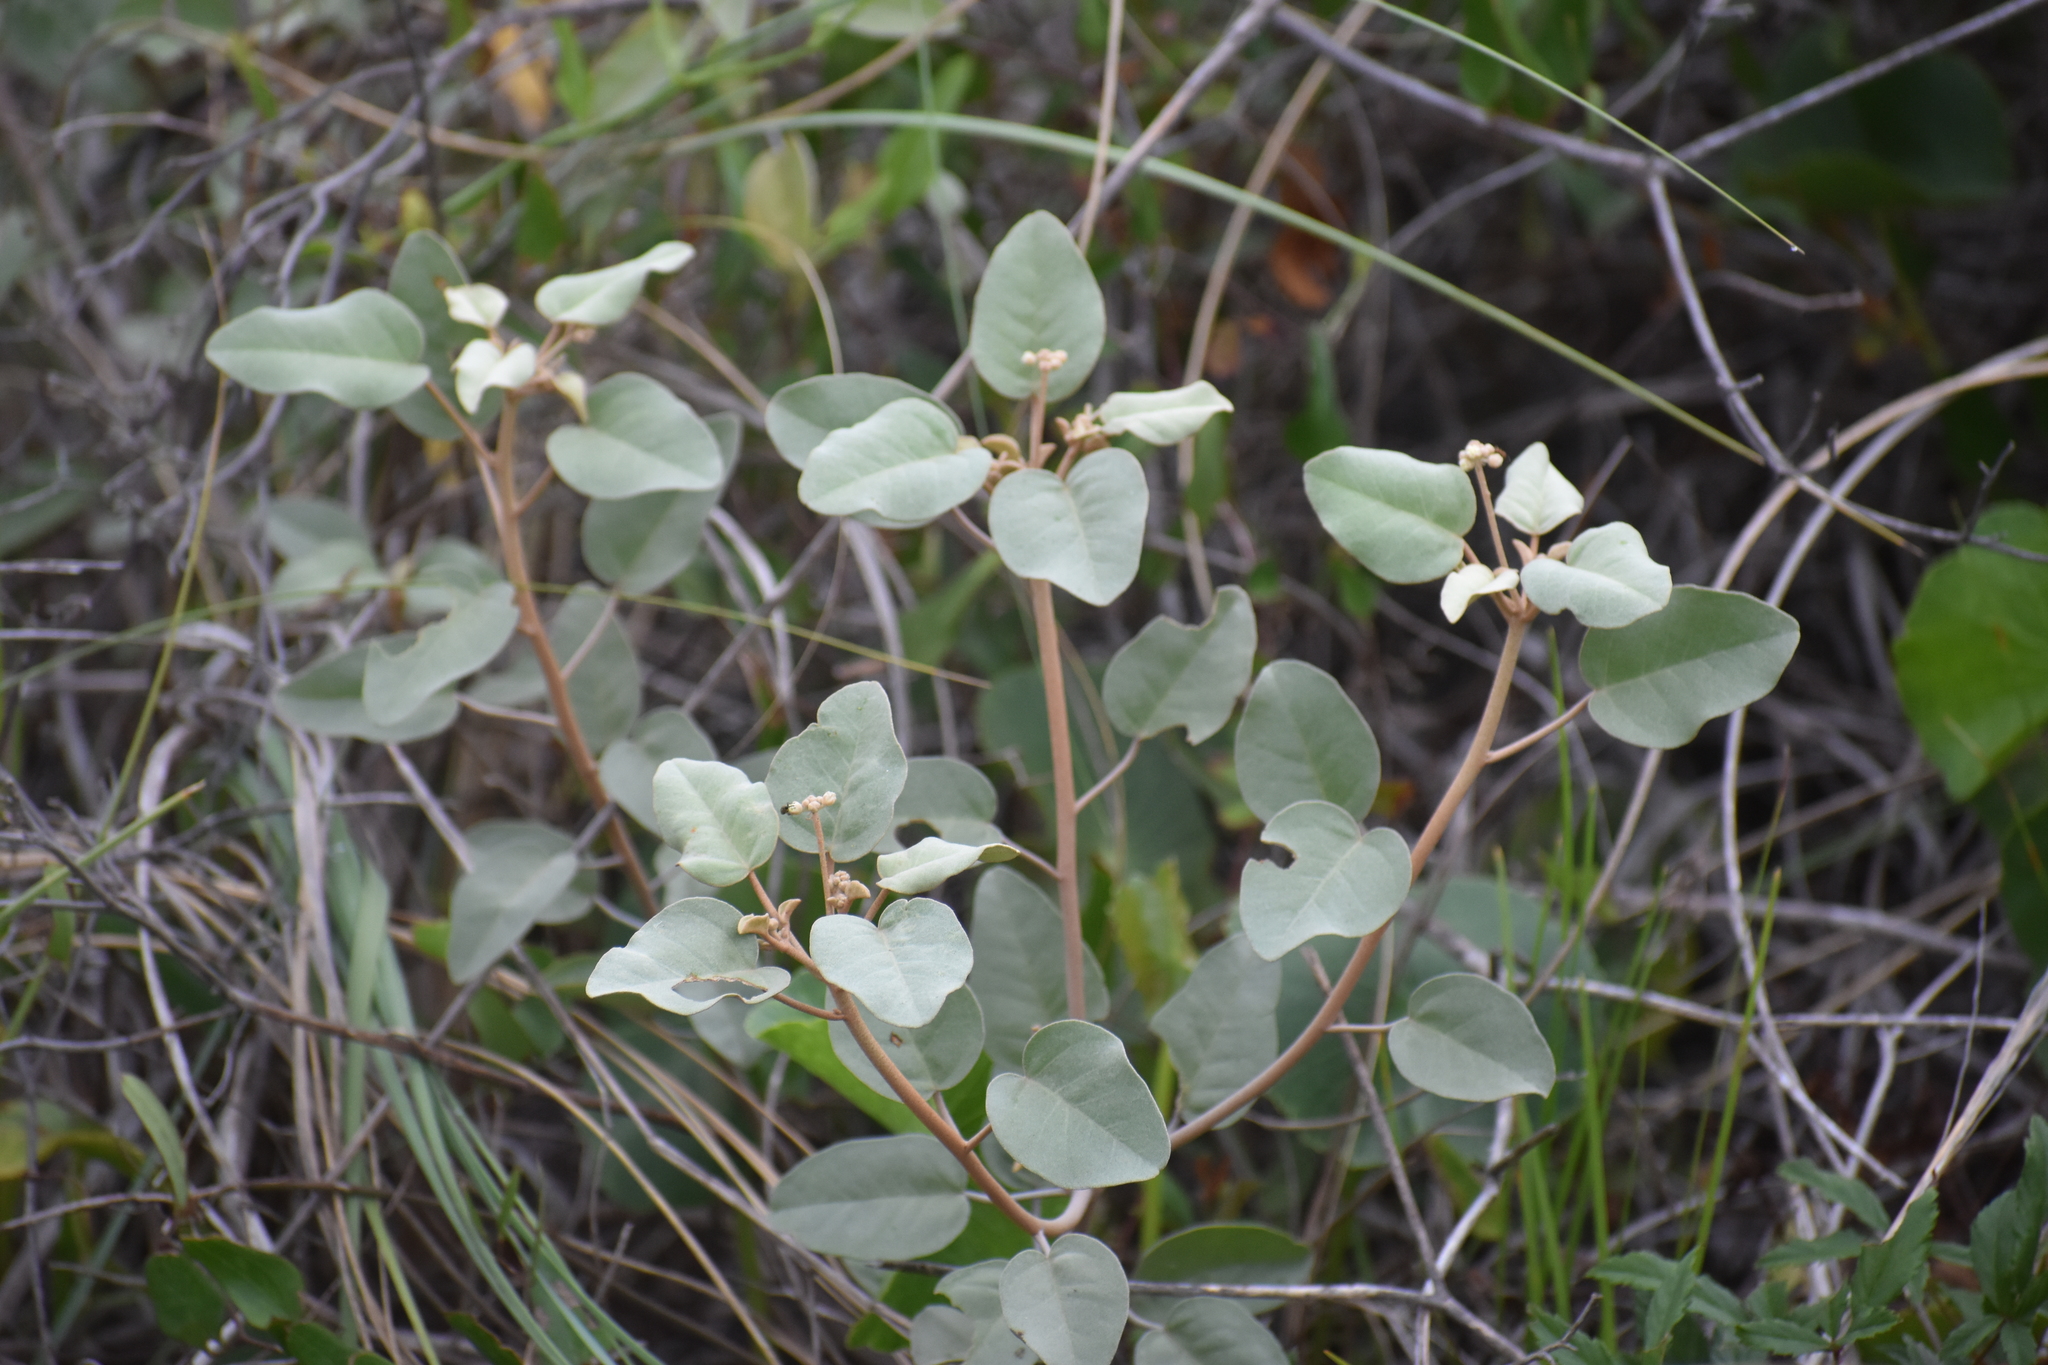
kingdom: Plantae
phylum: Tracheophyta
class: Magnoliopsida
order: Malpighiales
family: Euphorbiaceae
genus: Croton
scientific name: Croton punctatus
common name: Beach-tea
